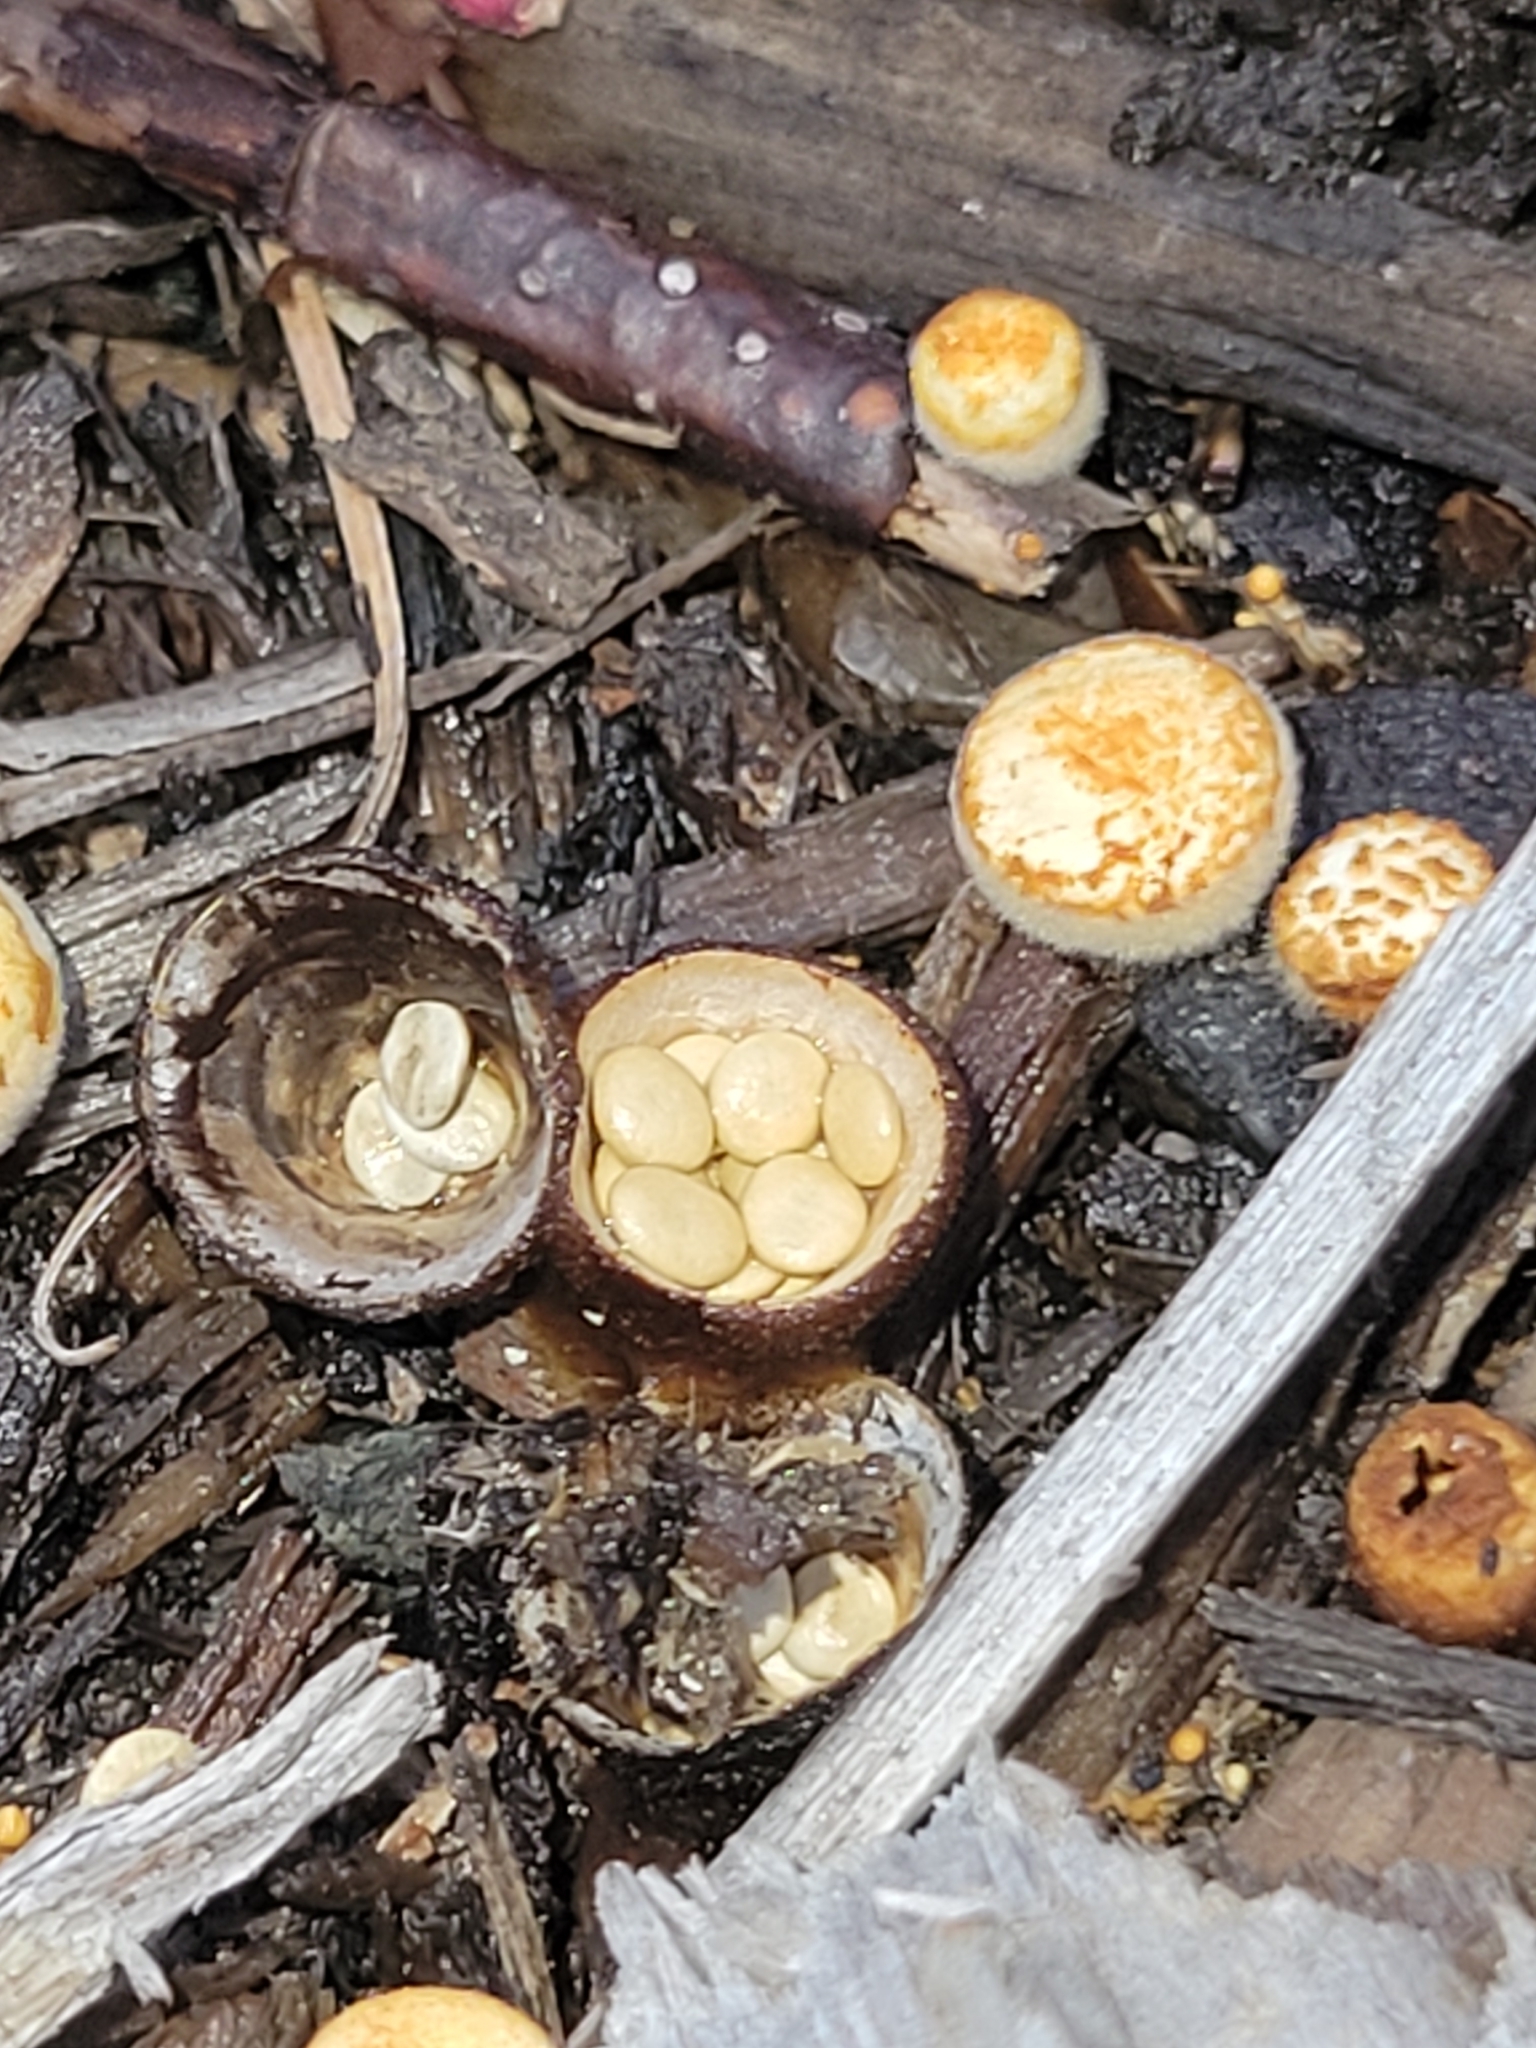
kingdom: Fungi
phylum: Basidiomycota
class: Agaricomycetes
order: Agaricales
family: Nidulariaceae
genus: Crucibulum
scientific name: Crucibulum laeve
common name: Common bird's nest
